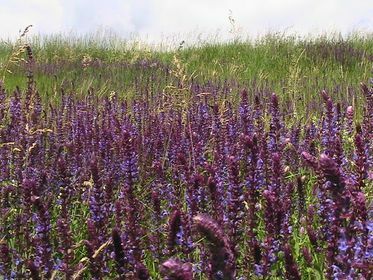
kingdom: Plantae
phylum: Tracheophyta
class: Magnoliopsida
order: Lamiales
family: Lamiaceae
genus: Salvia
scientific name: Salvia nemorosa
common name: Balkan clary
